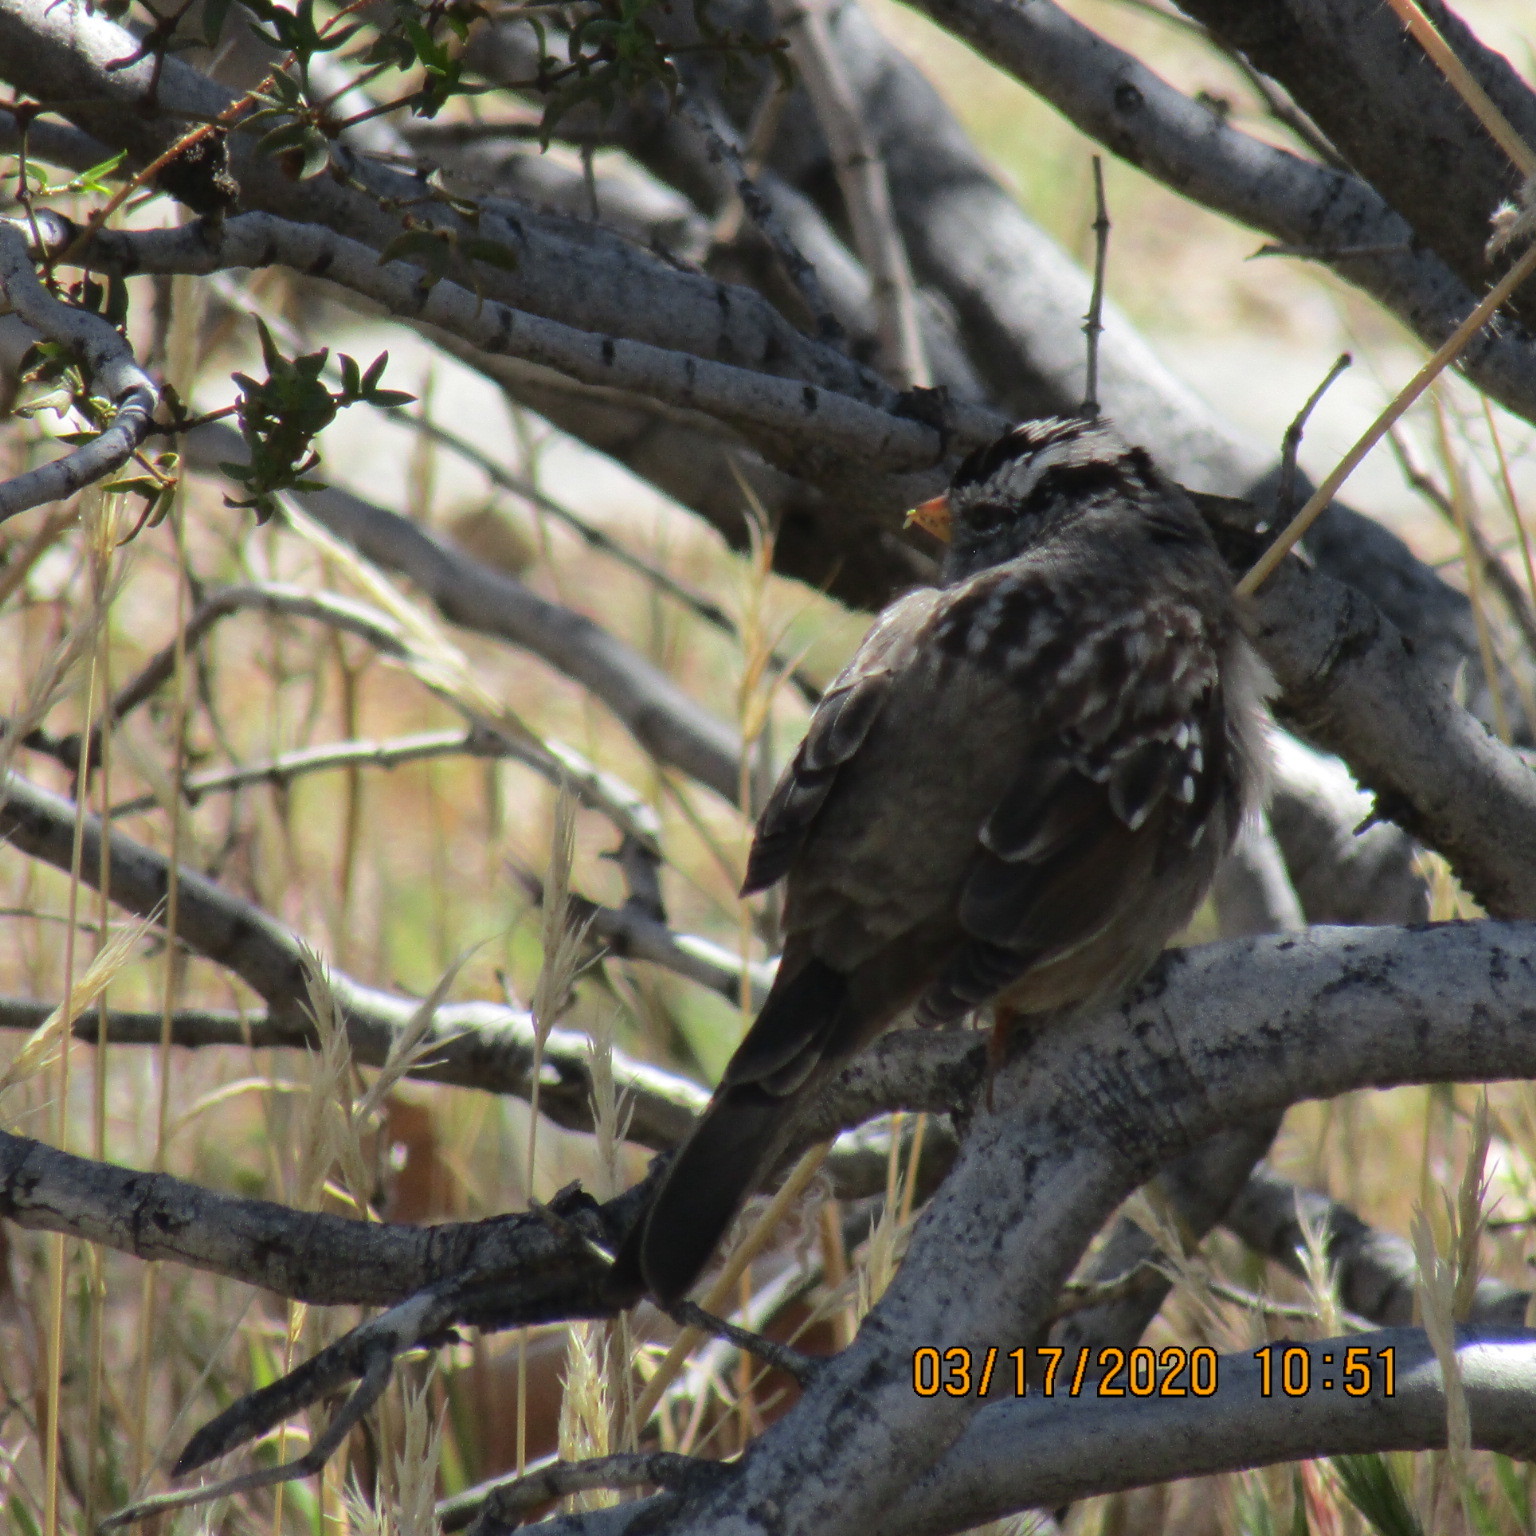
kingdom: Animalia
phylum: Chordata
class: Aves
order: Passeriformes
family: Passerellidae
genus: Zonotrichia
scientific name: Zonotrichia leucophrys
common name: White-crowned sparrow
